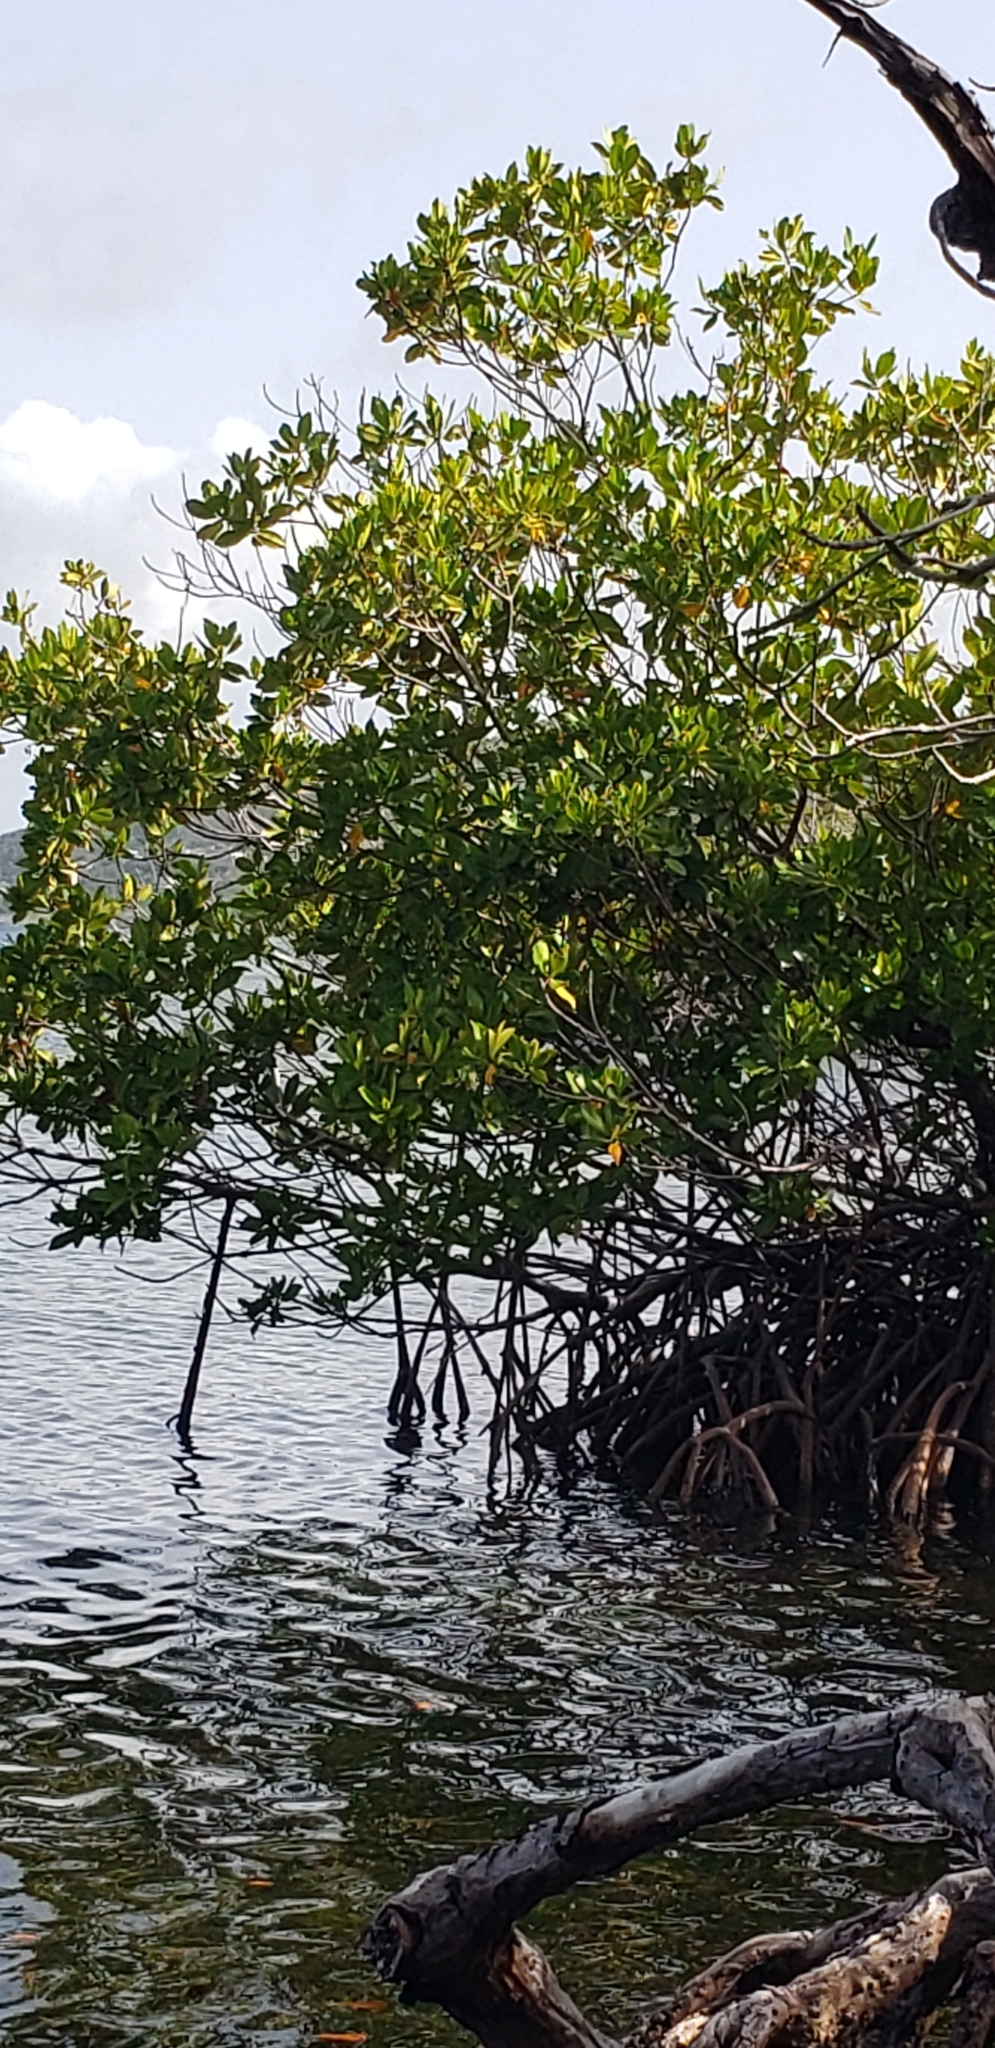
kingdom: Plantae
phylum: Tracheophyta
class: Magnoliopsida
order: Malpighiales
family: Rhizophoraceae
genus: Rhizophora
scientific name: Rhizophora mangle
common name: Red mangrove
